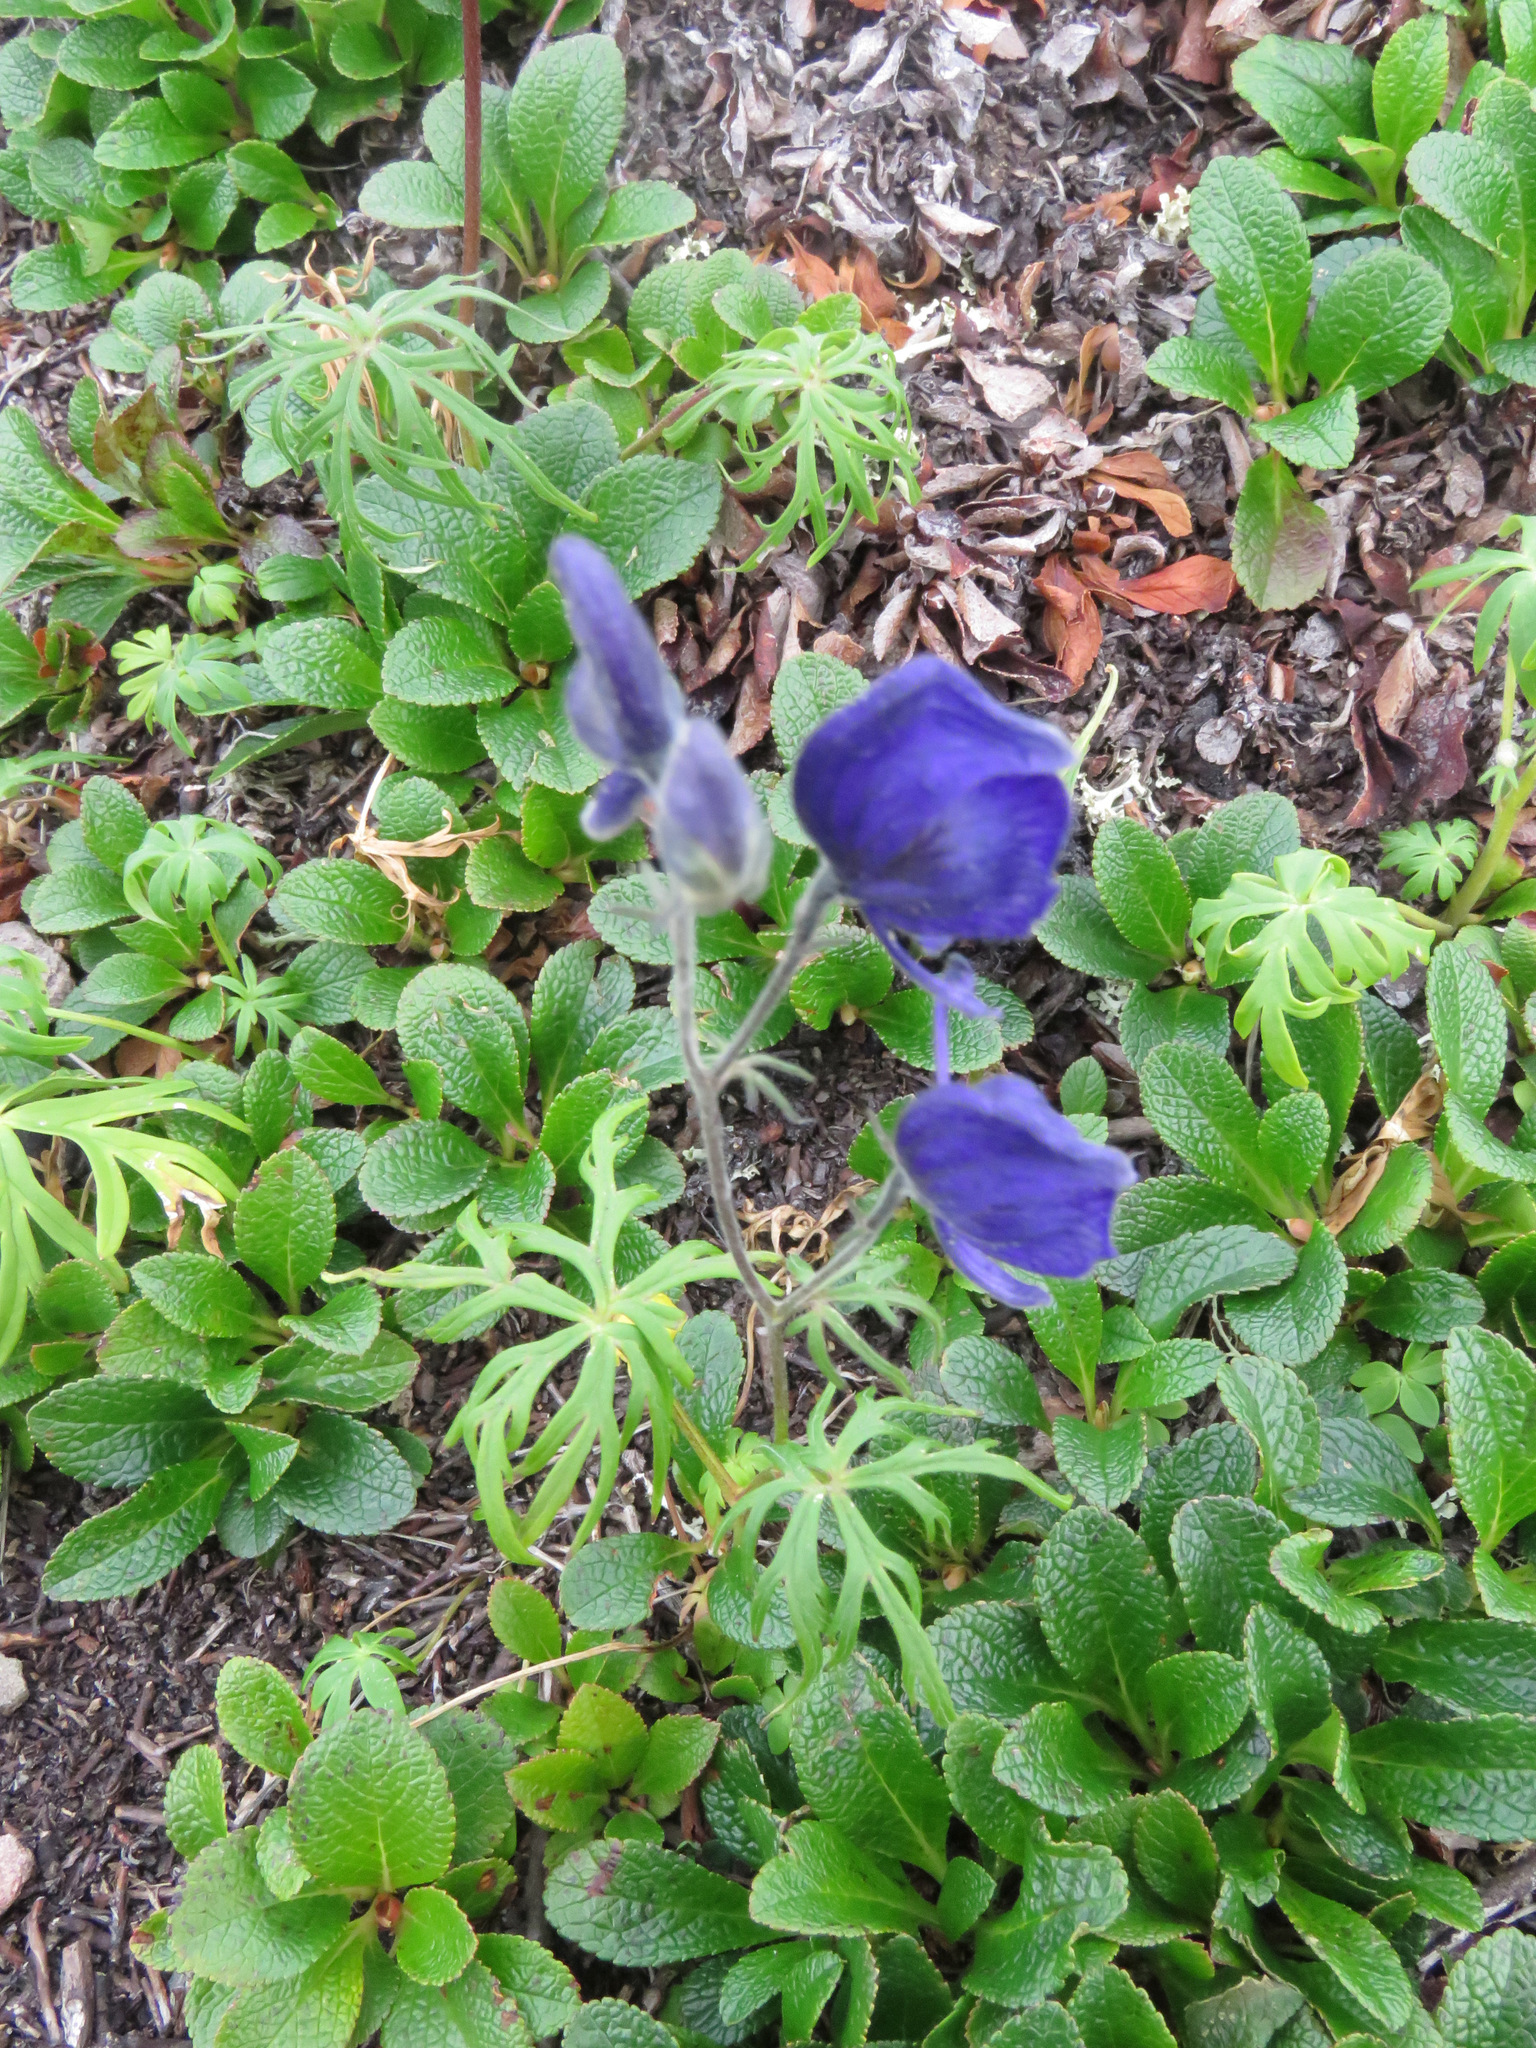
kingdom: Plantae
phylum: Tracheophyta
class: Magnoliopsida
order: Ranunculales
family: Ranunculaceae
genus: Aconitum
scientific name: Aconitum delphiniifolium
